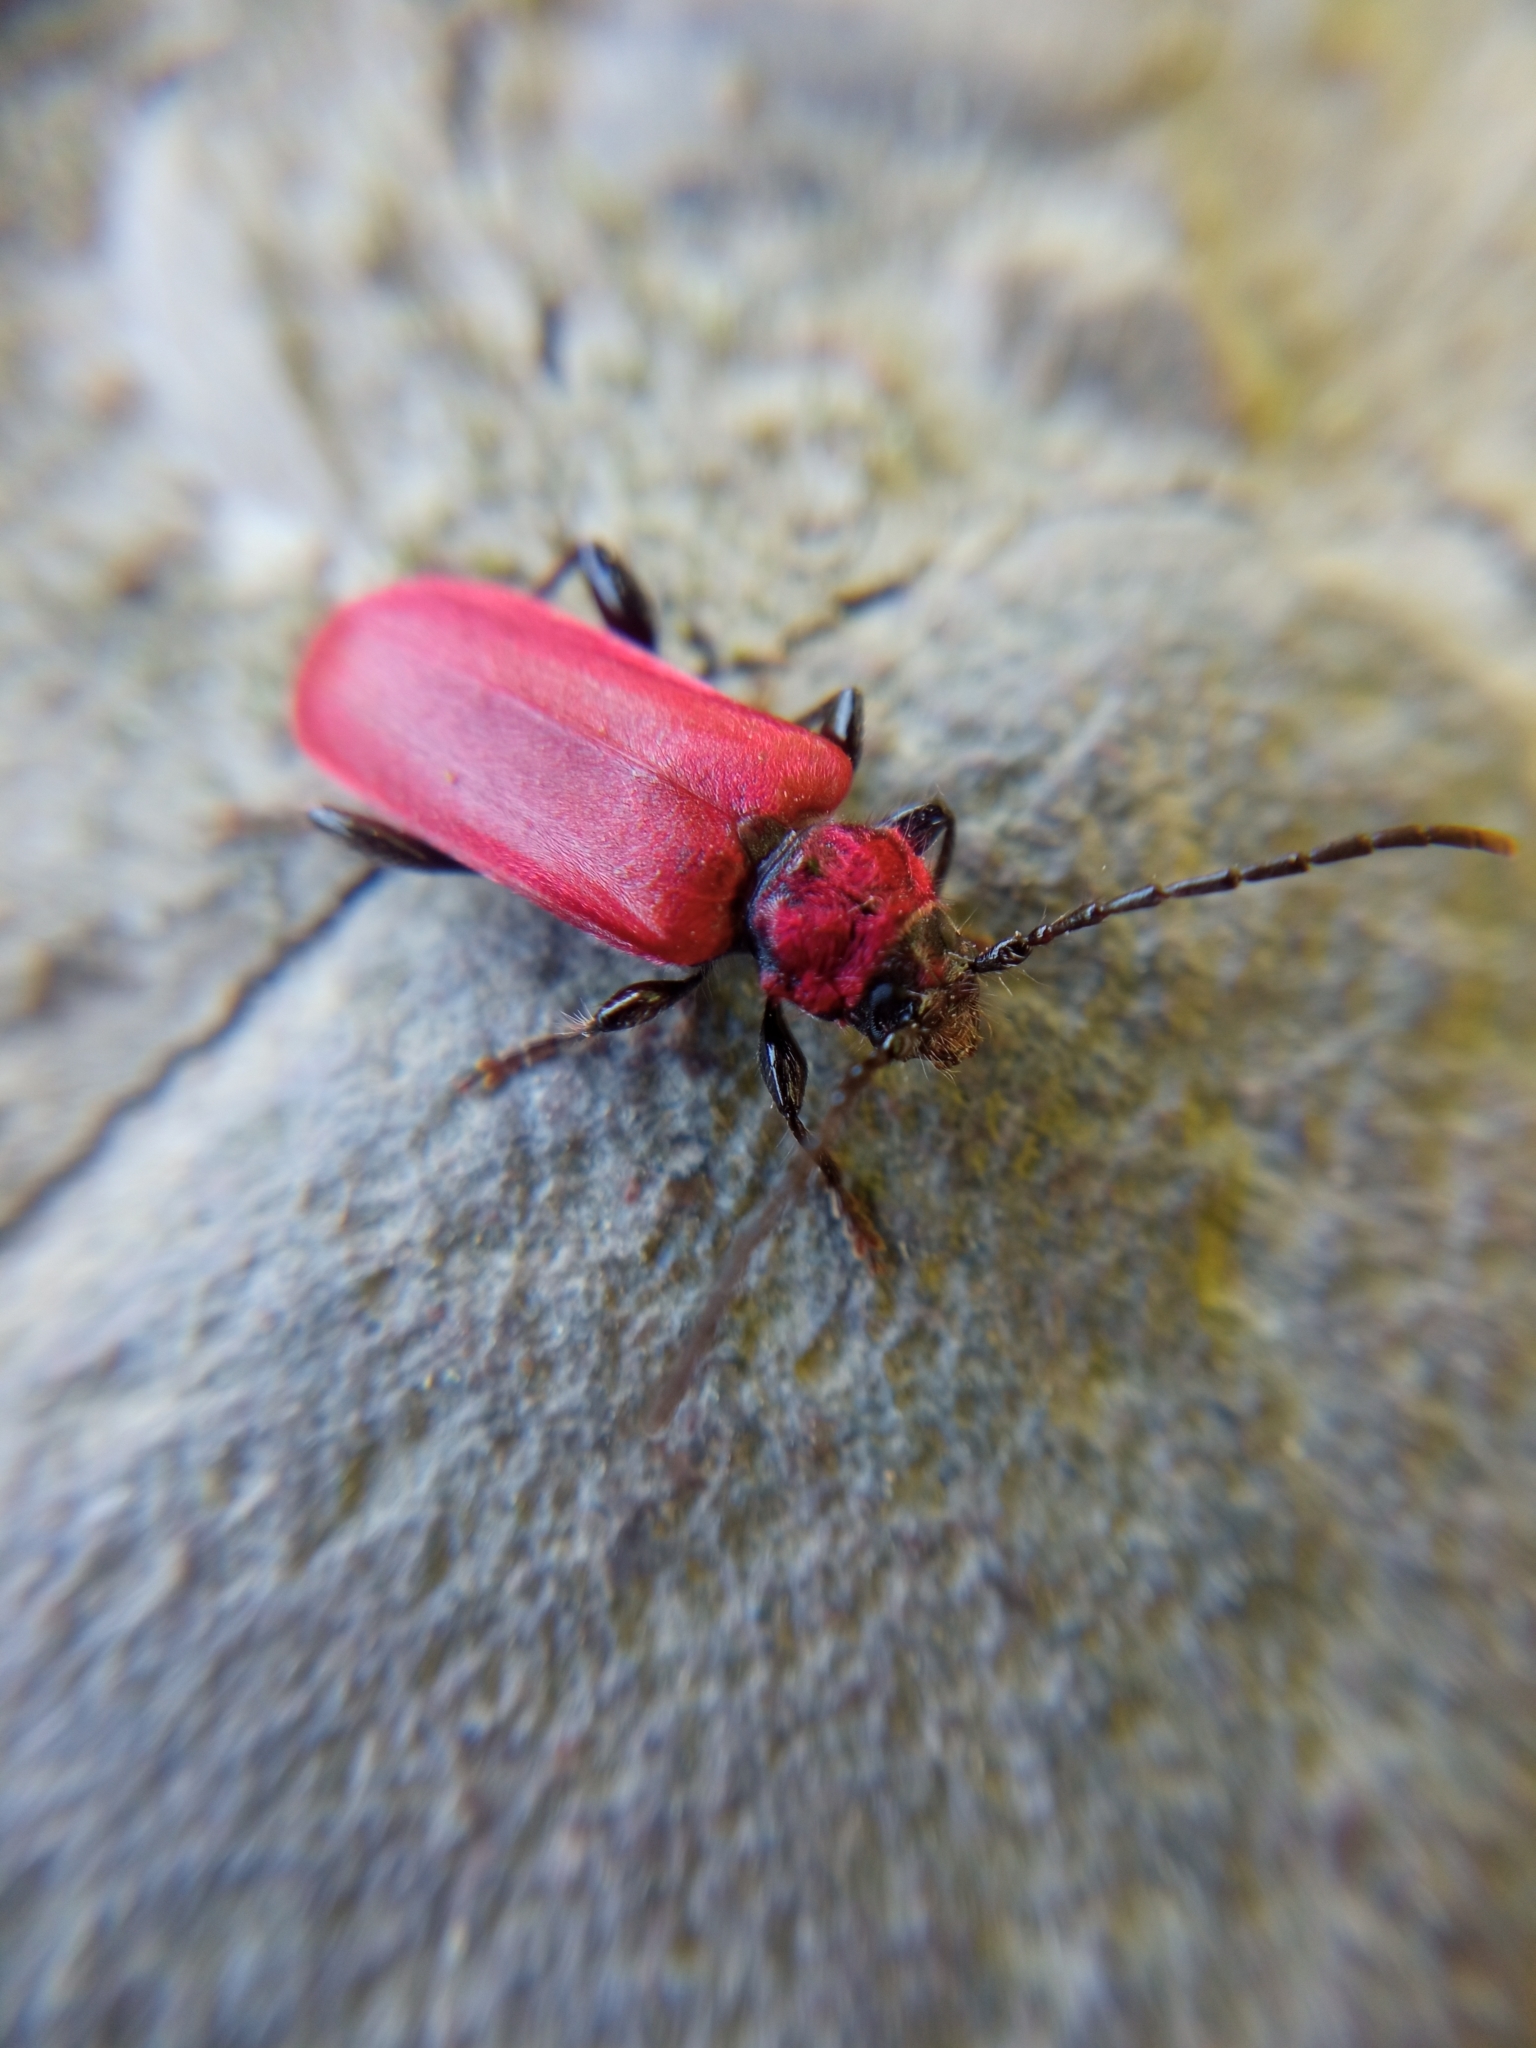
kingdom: Animalia
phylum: Arthropoda
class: Insecta
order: Coleoptera
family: Cerambycidae
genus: Pyrrhidium
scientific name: Pyrrhidium sanguineum
